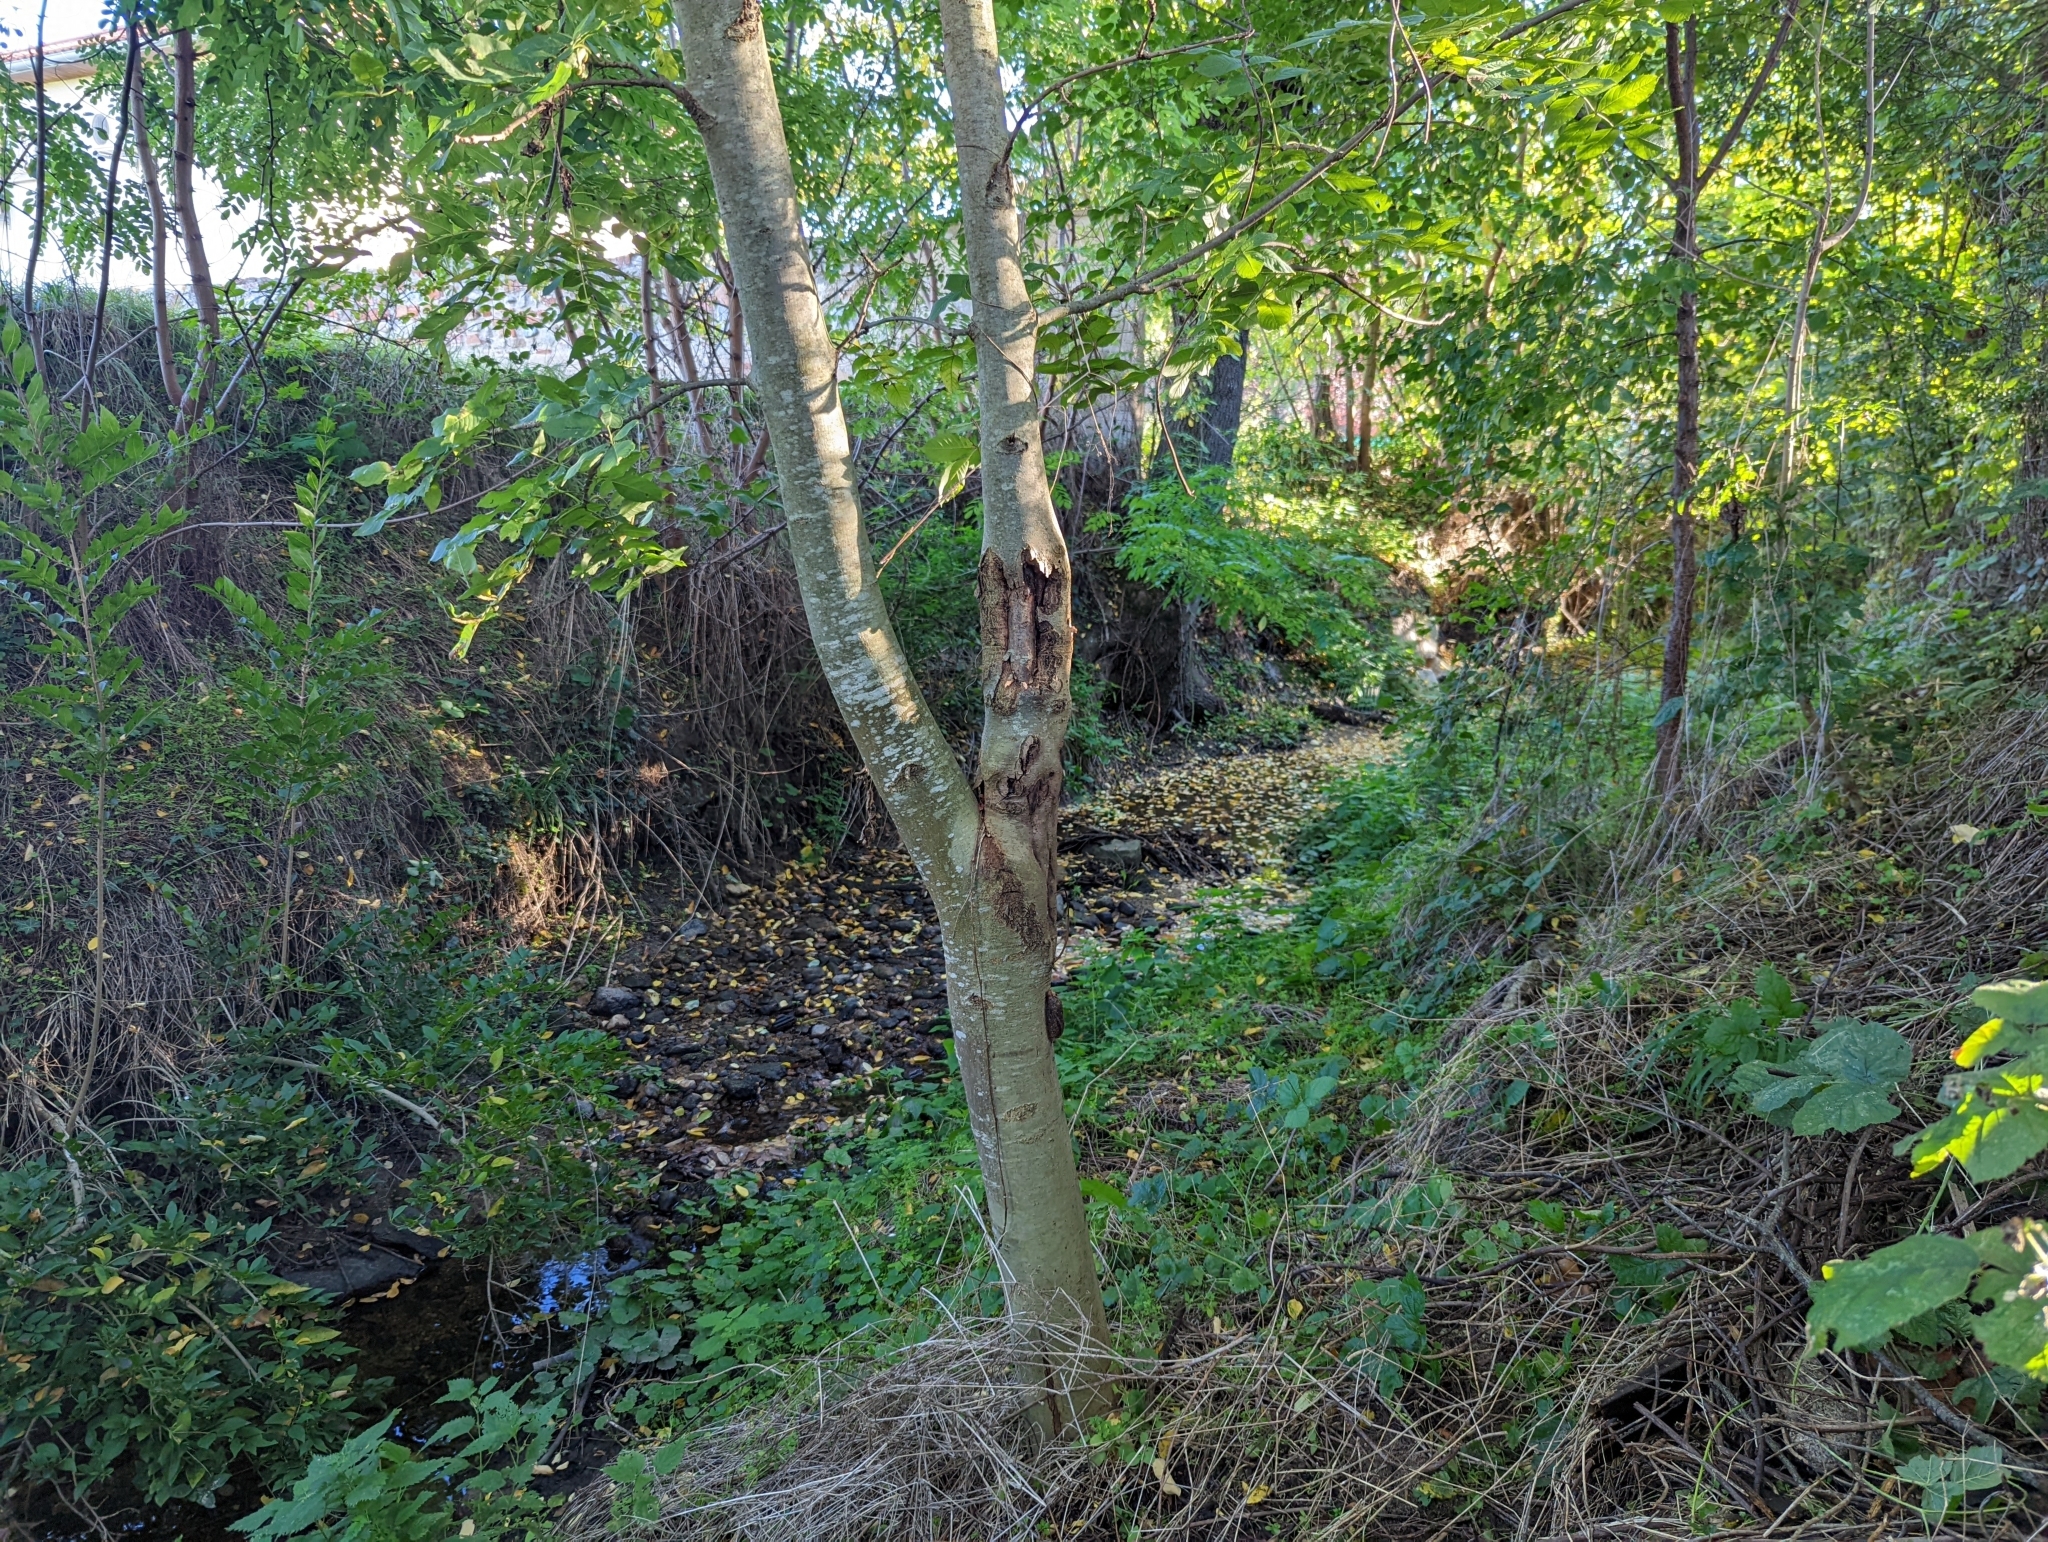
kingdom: Animalia
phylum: Arthropoda
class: Insecta
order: Lepidoptera
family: Saturniidae
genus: Saturnia
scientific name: Saturnia pyri
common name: Great peacock moth
